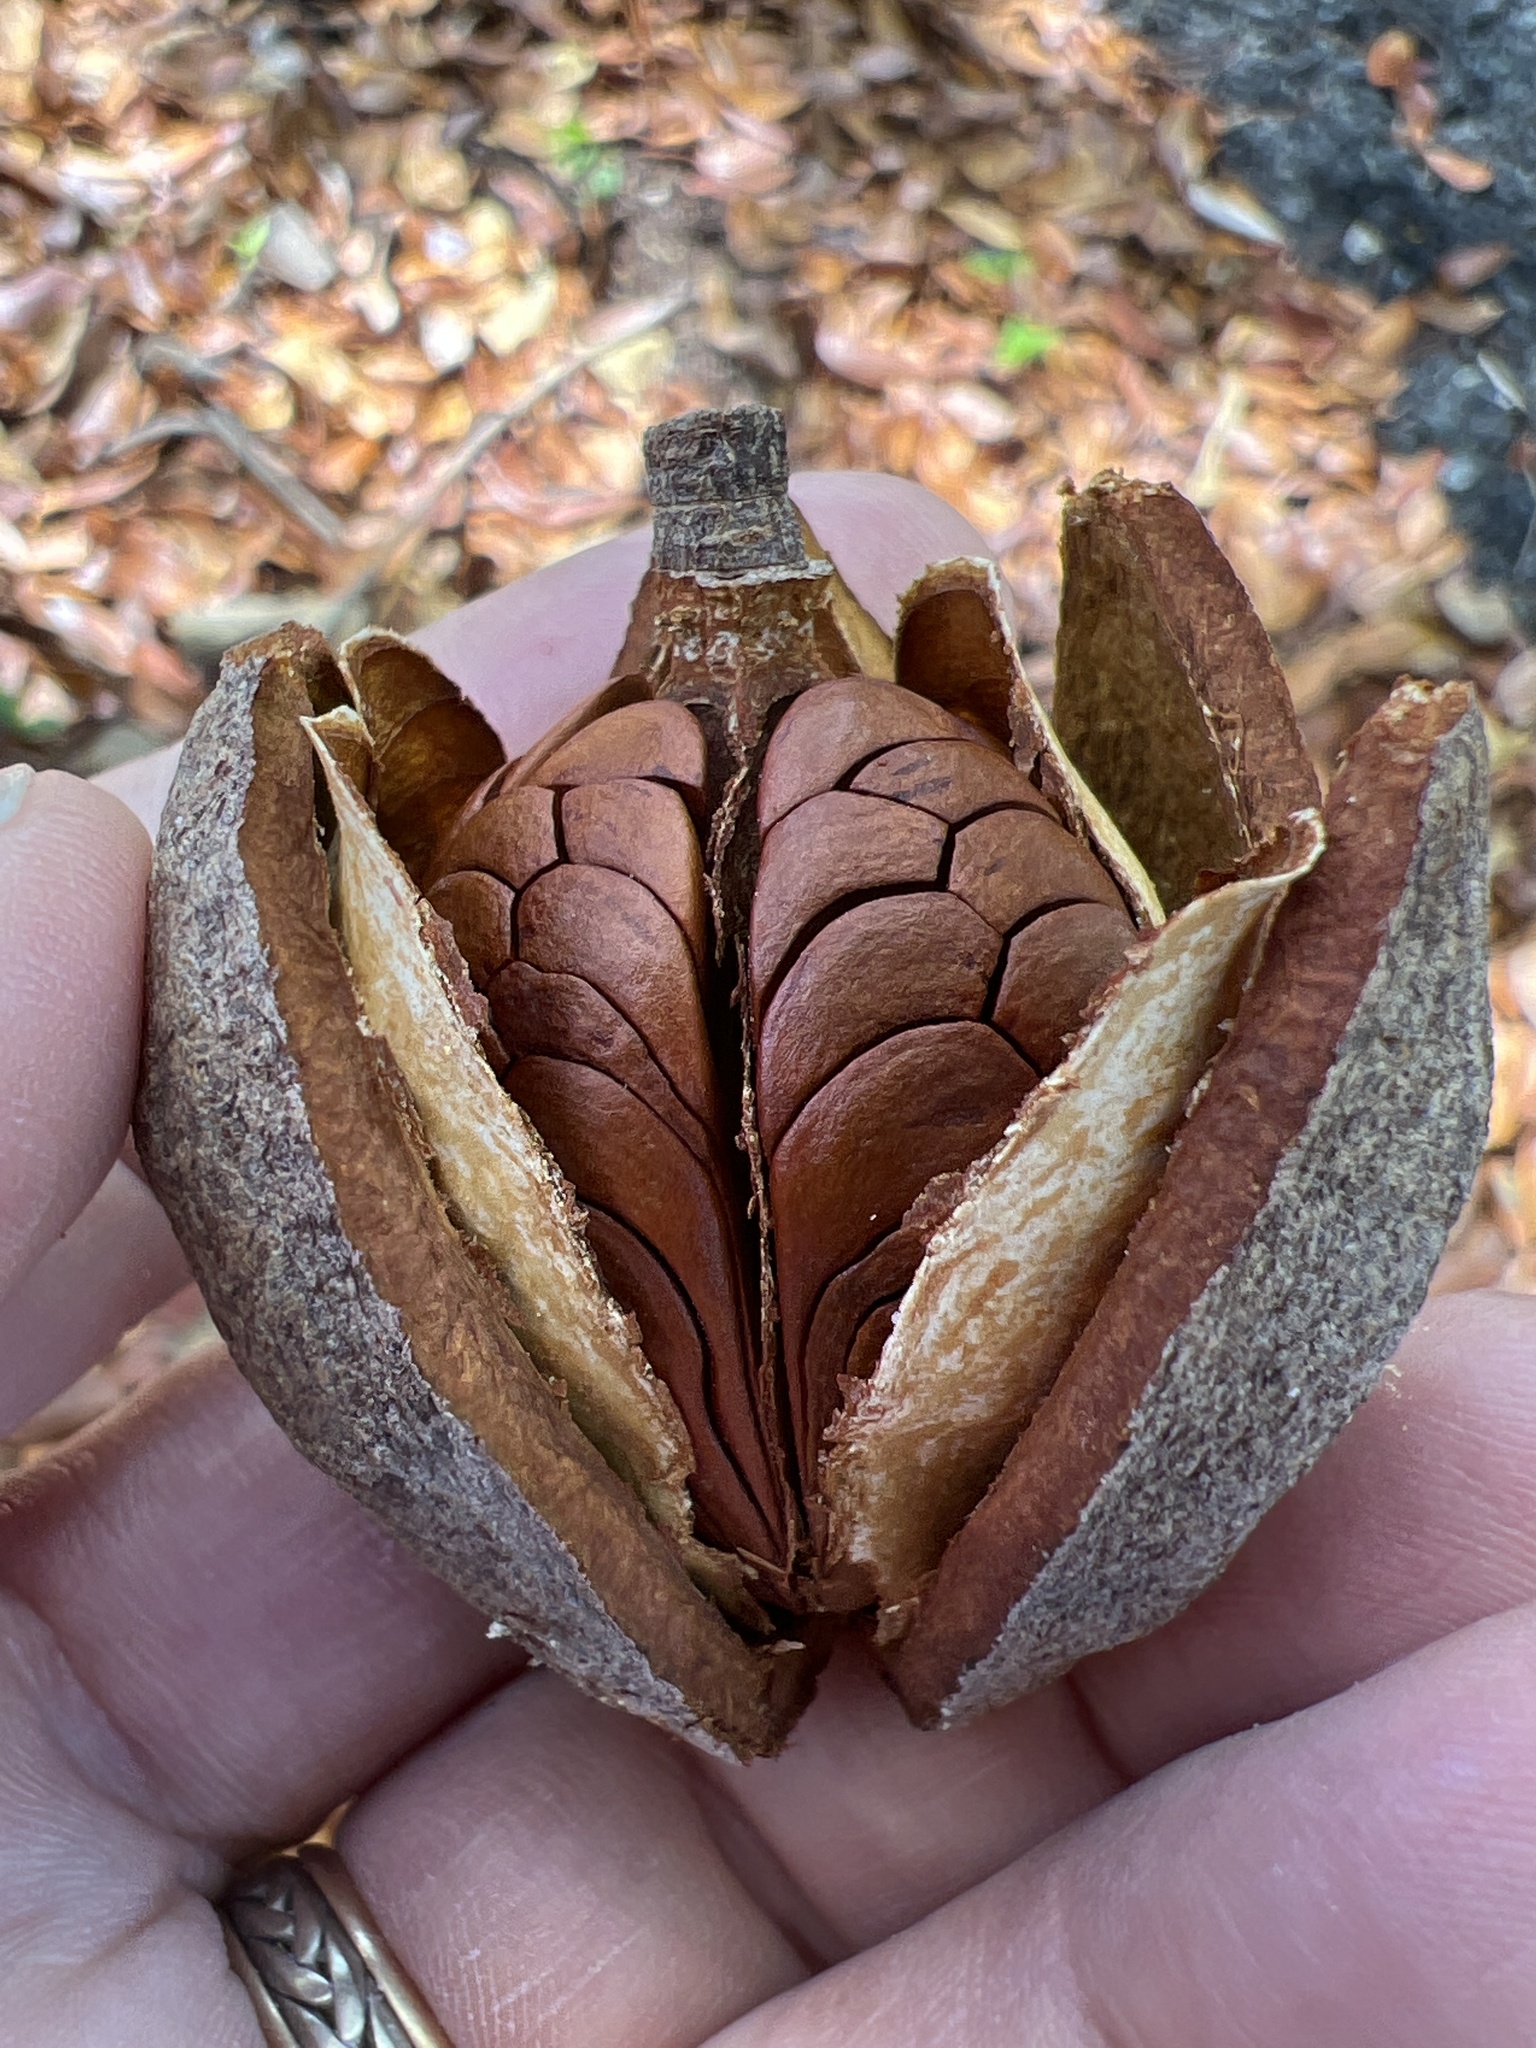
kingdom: Plantae
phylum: Tracheophyta
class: Magnoliopsida
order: Sapindales
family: Meliaceae
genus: Swietenia
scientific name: Swietenia mahagoni
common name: West indian mahogany
